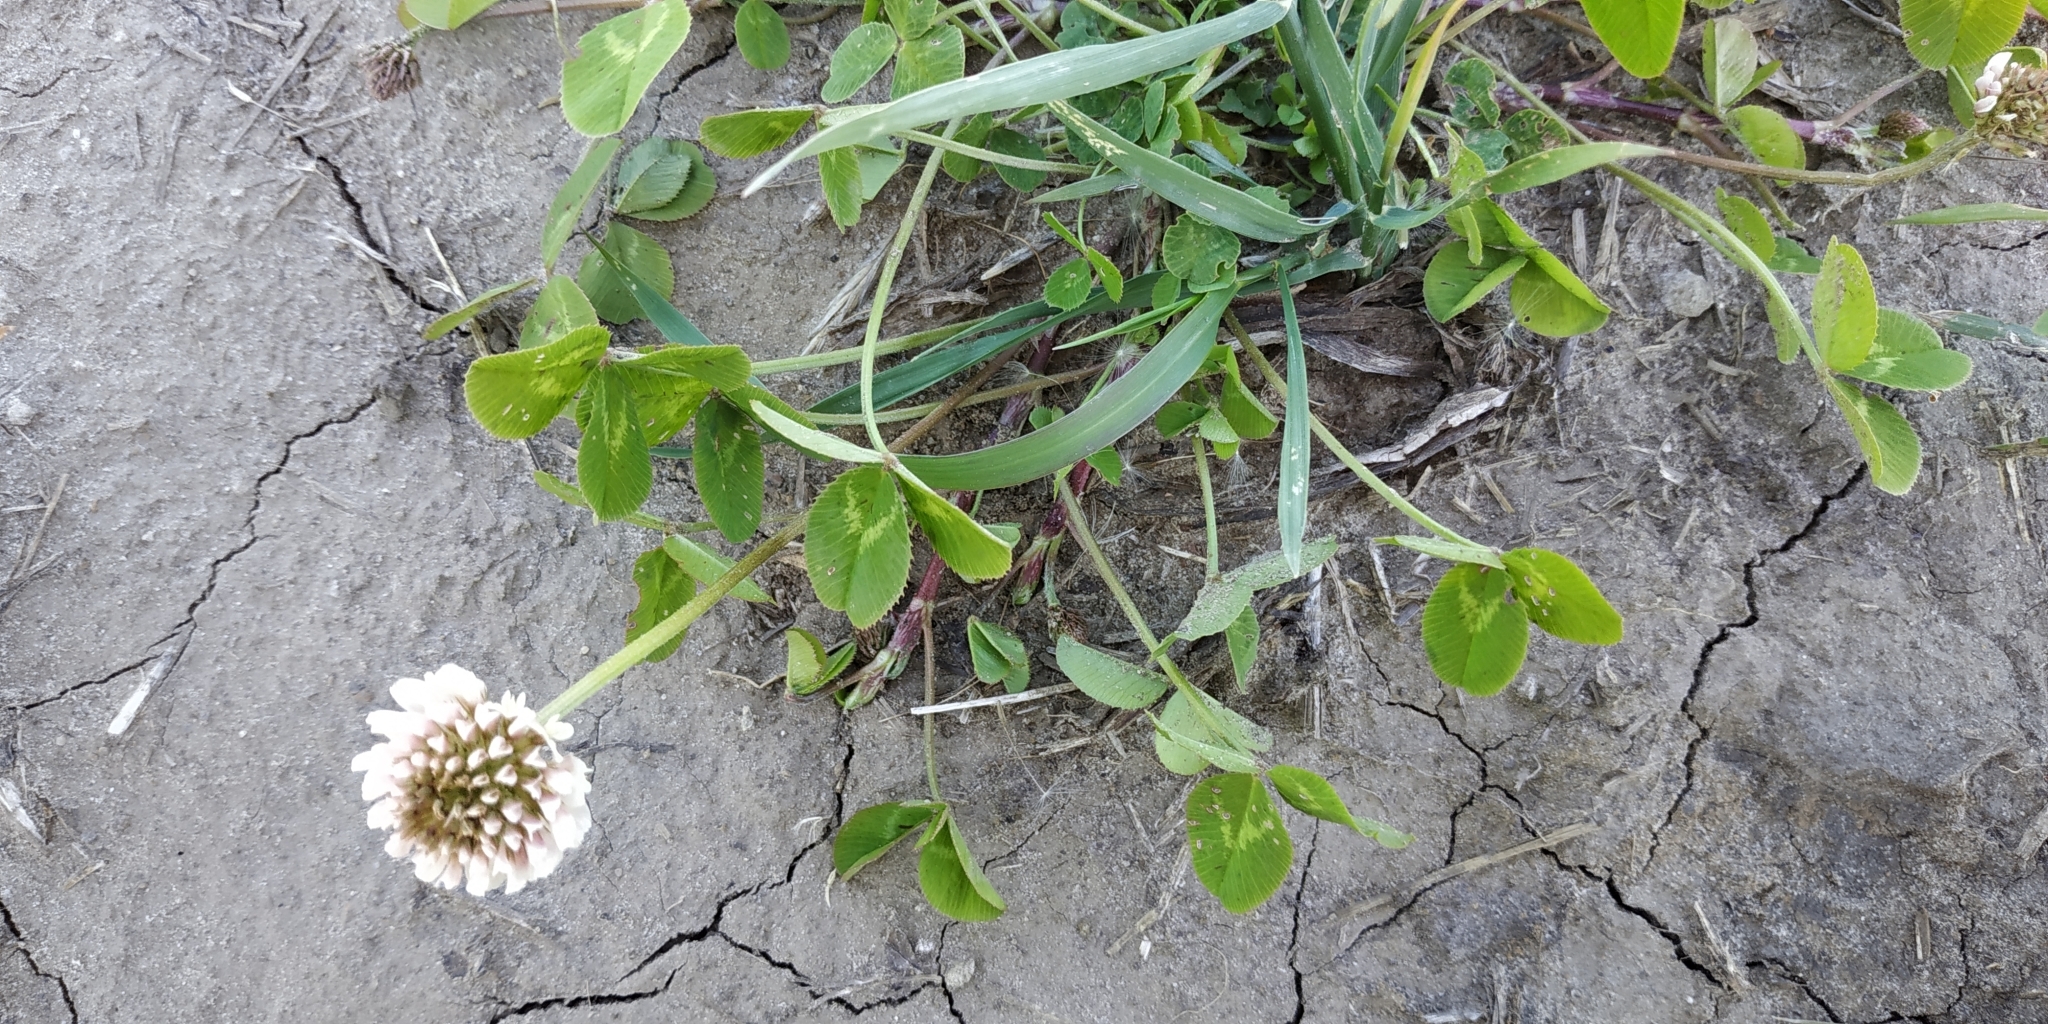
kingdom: Plantae
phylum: Tracheophyta
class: Magnoliopsida
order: Fabales
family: Fabaceae
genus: Trifolium
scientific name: Trifolium repens
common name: White clover
